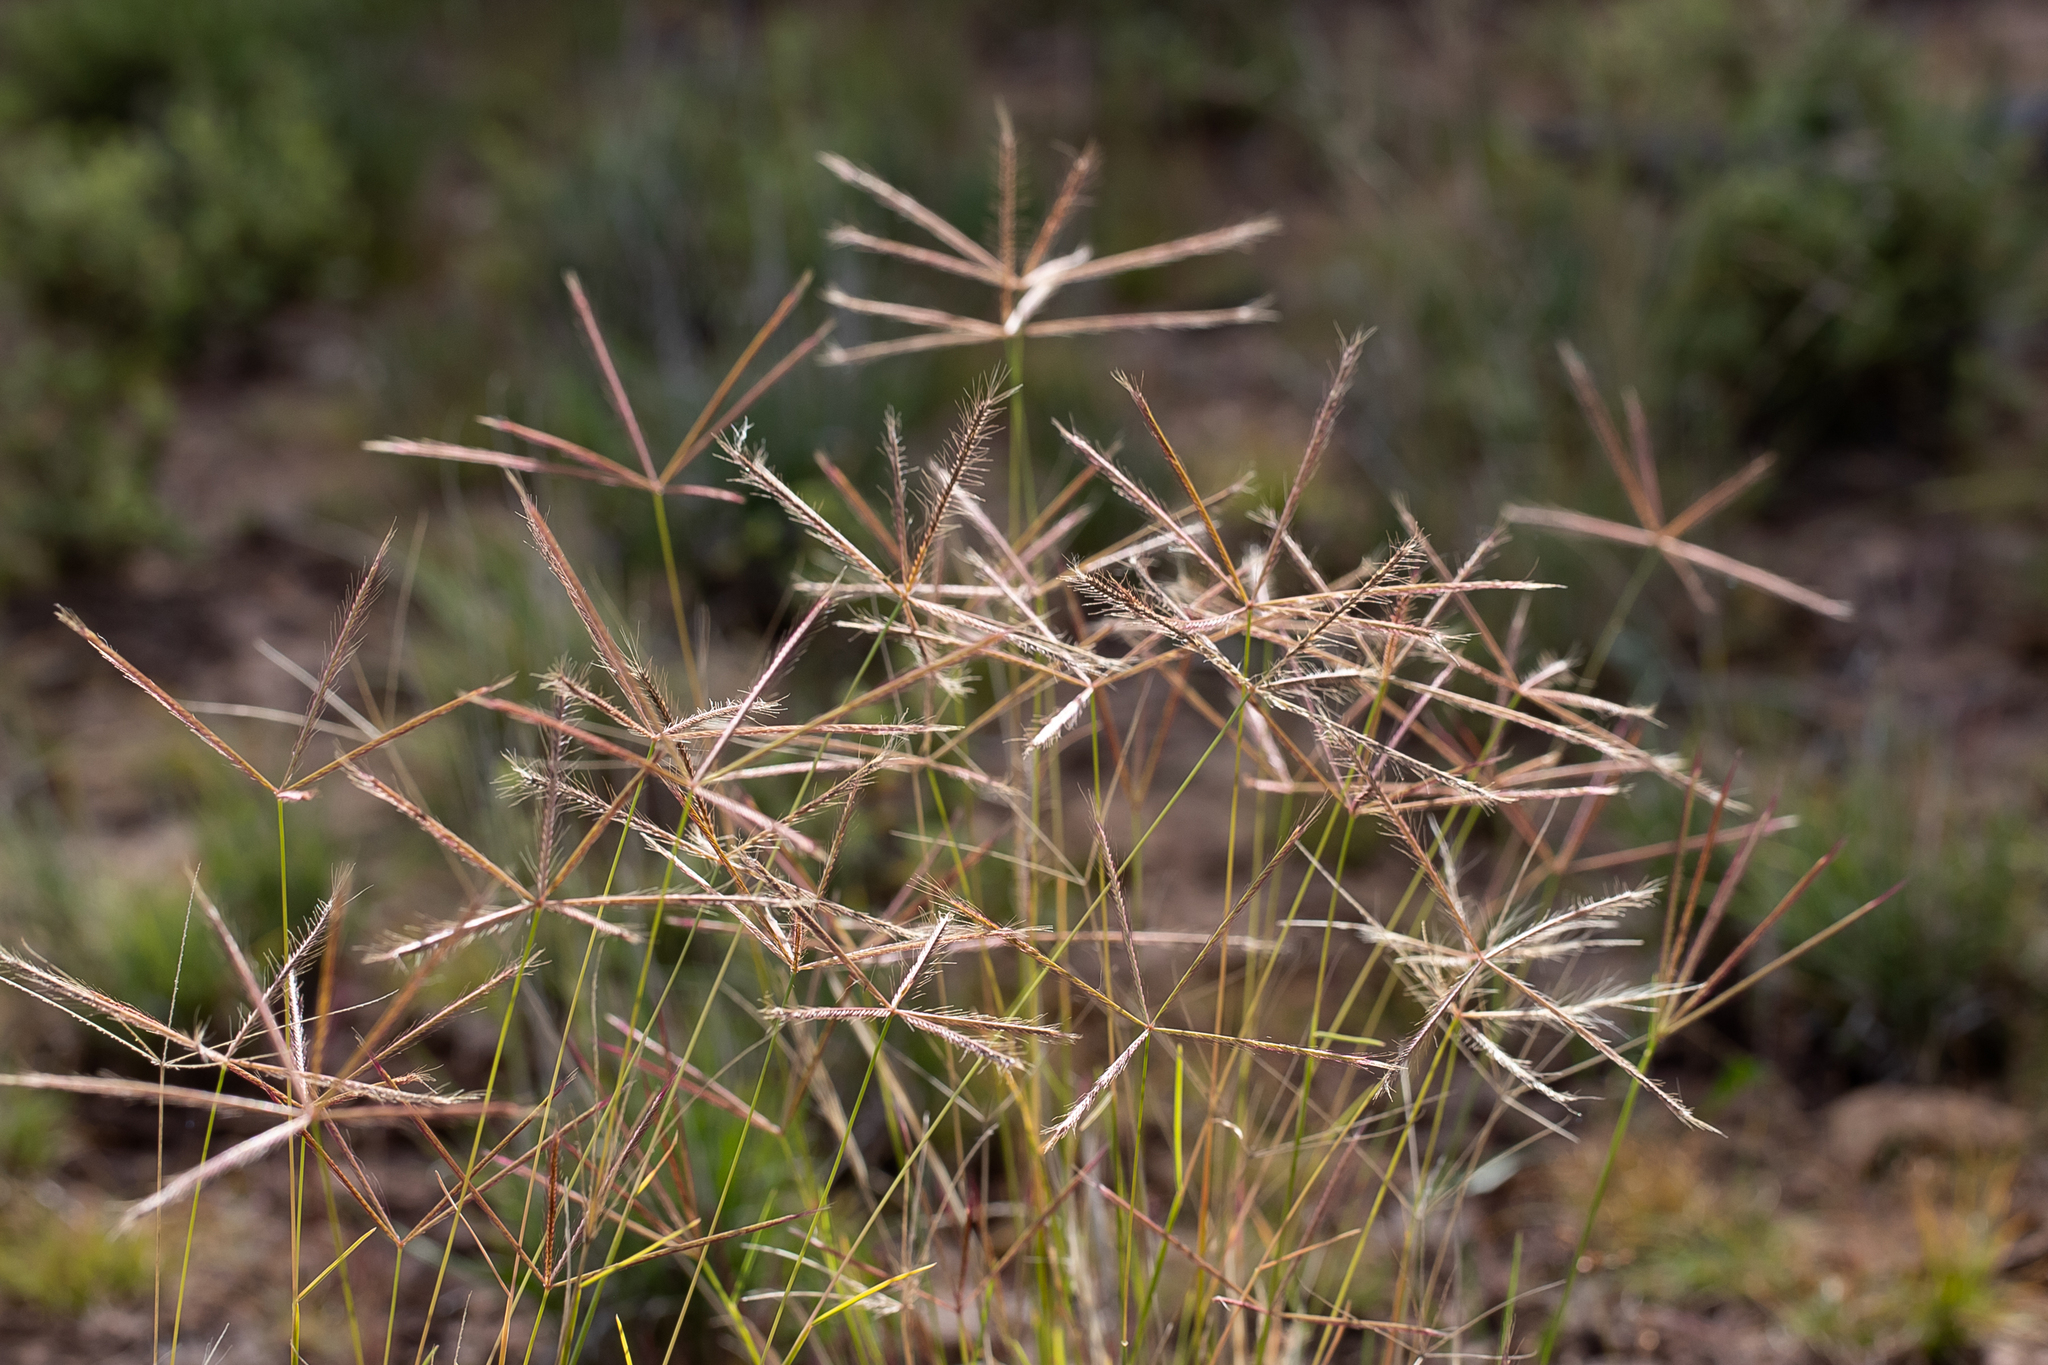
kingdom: Plantae
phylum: Tracheophyta
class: Liliopsida
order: Poales
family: Poaceae
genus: Chloris
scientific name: Chloris pectinata
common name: Comb windmill grass
